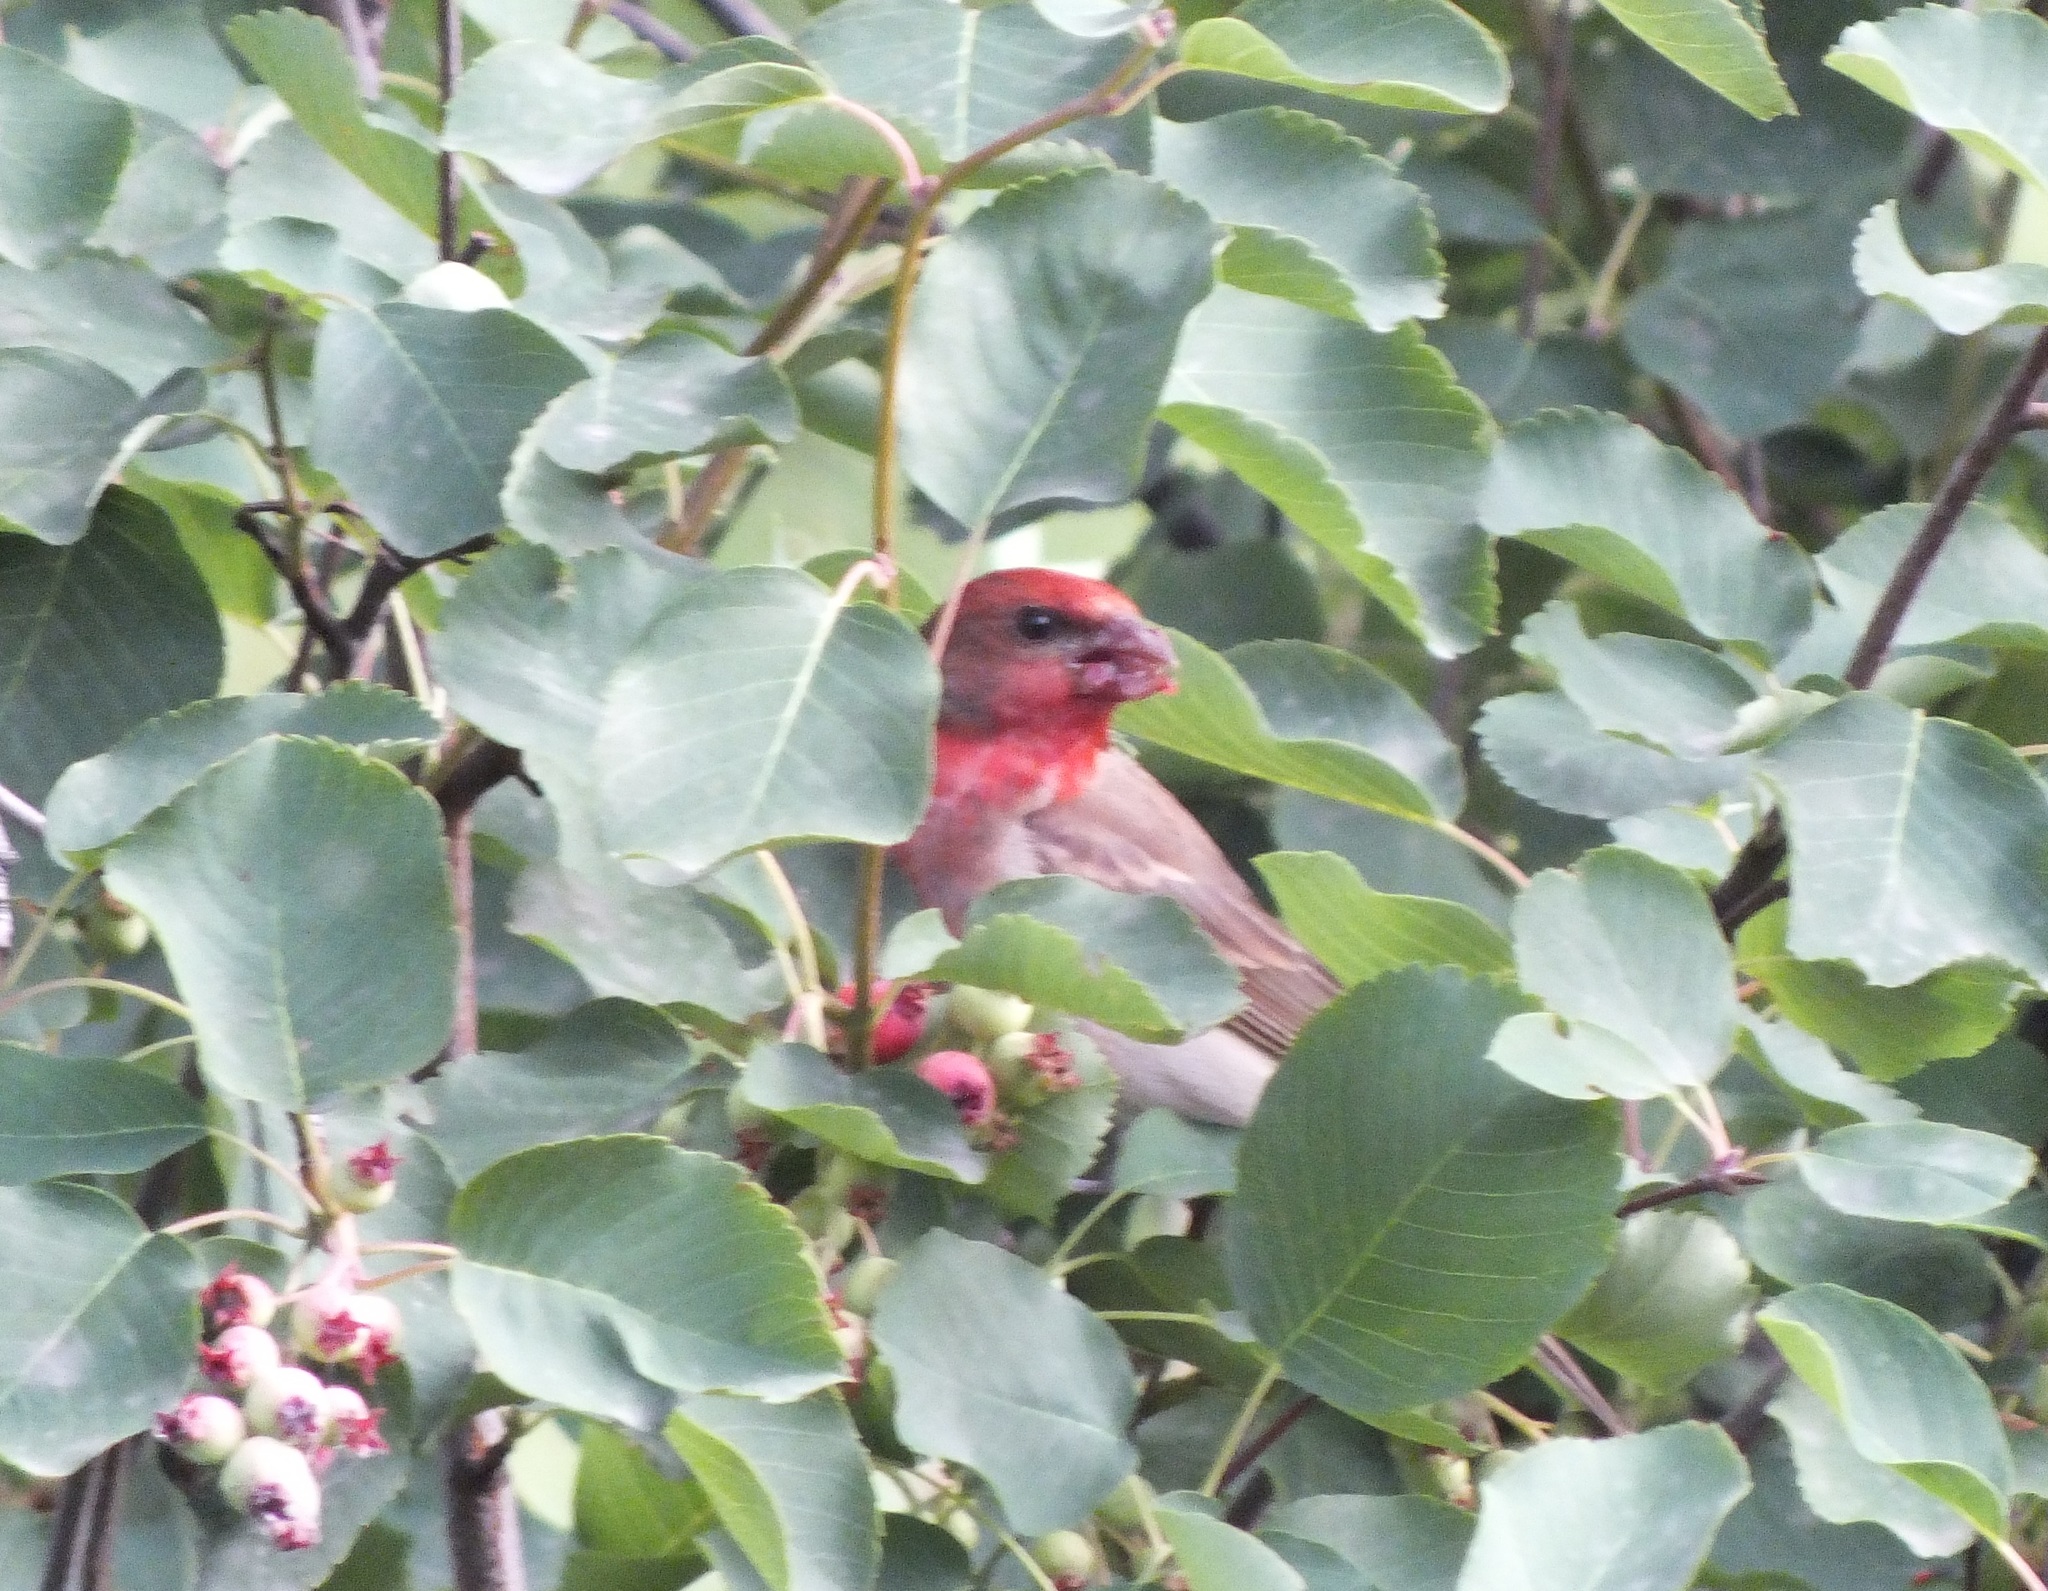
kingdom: Animalia
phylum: Chordata
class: Aves
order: Passeriformes
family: Fringillidae
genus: Carpodacus
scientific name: Carpodacus erythrinus
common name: Common rosefinch
